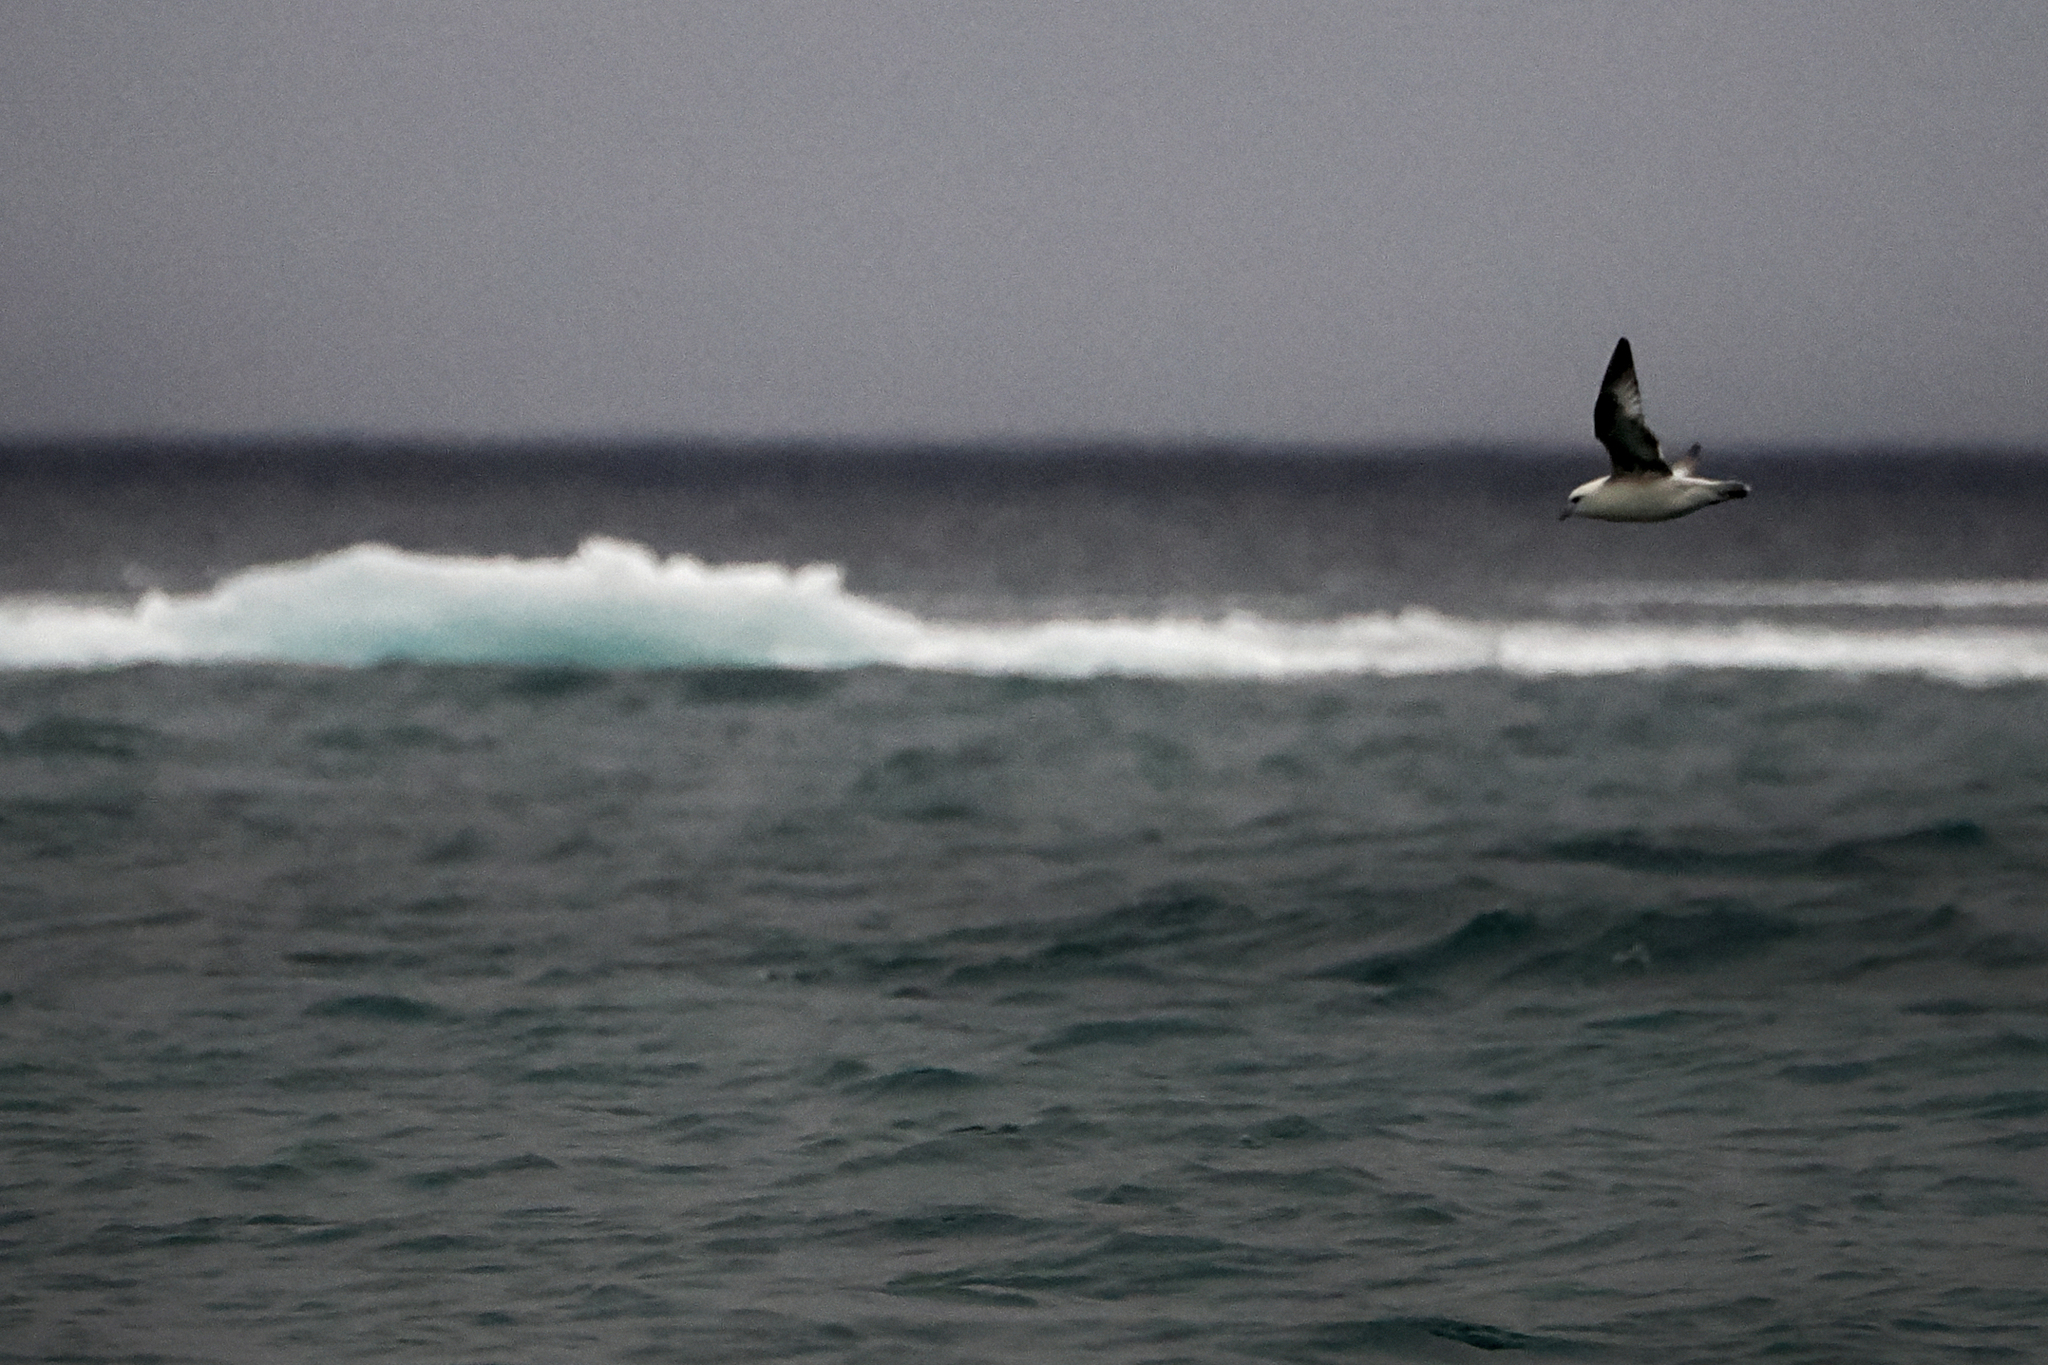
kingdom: Animalia
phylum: Chordata
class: Aves
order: Procellariiformes
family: Procellariidae
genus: Fulmarus
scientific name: Fulmarus glacialis
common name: Northern fulmar
